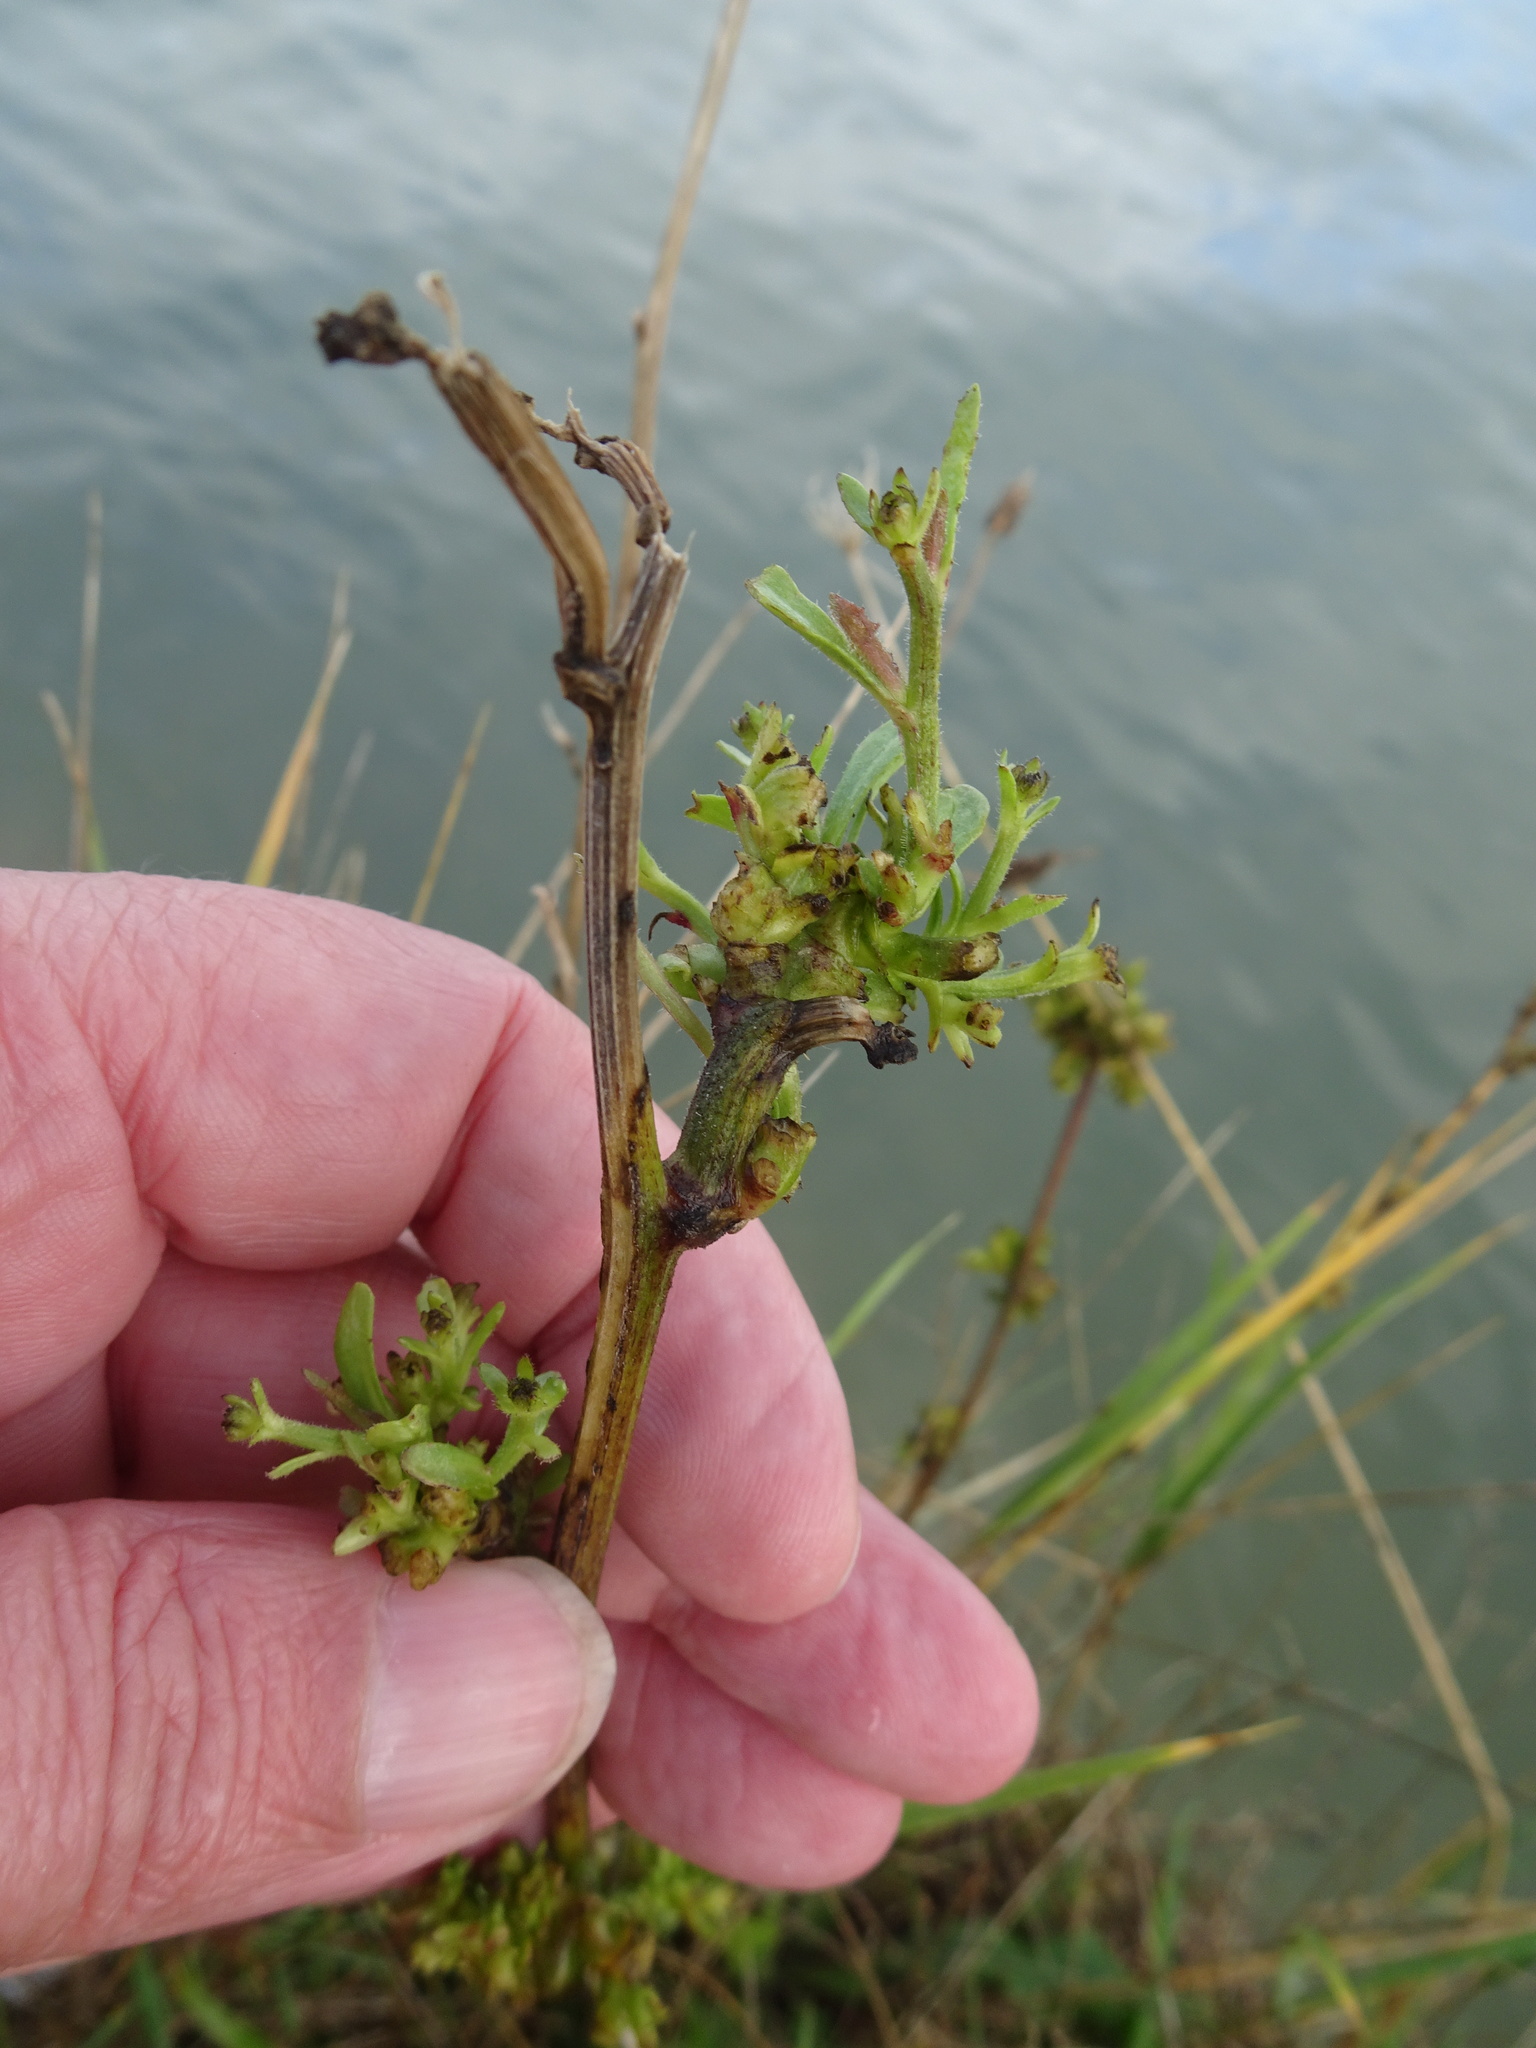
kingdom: Plantae
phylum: Tracheophyta
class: Magnoliopsida
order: Asterales
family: Asteraceae
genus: Limbarda
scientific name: Limbarda crithmoides
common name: Golden samphire
